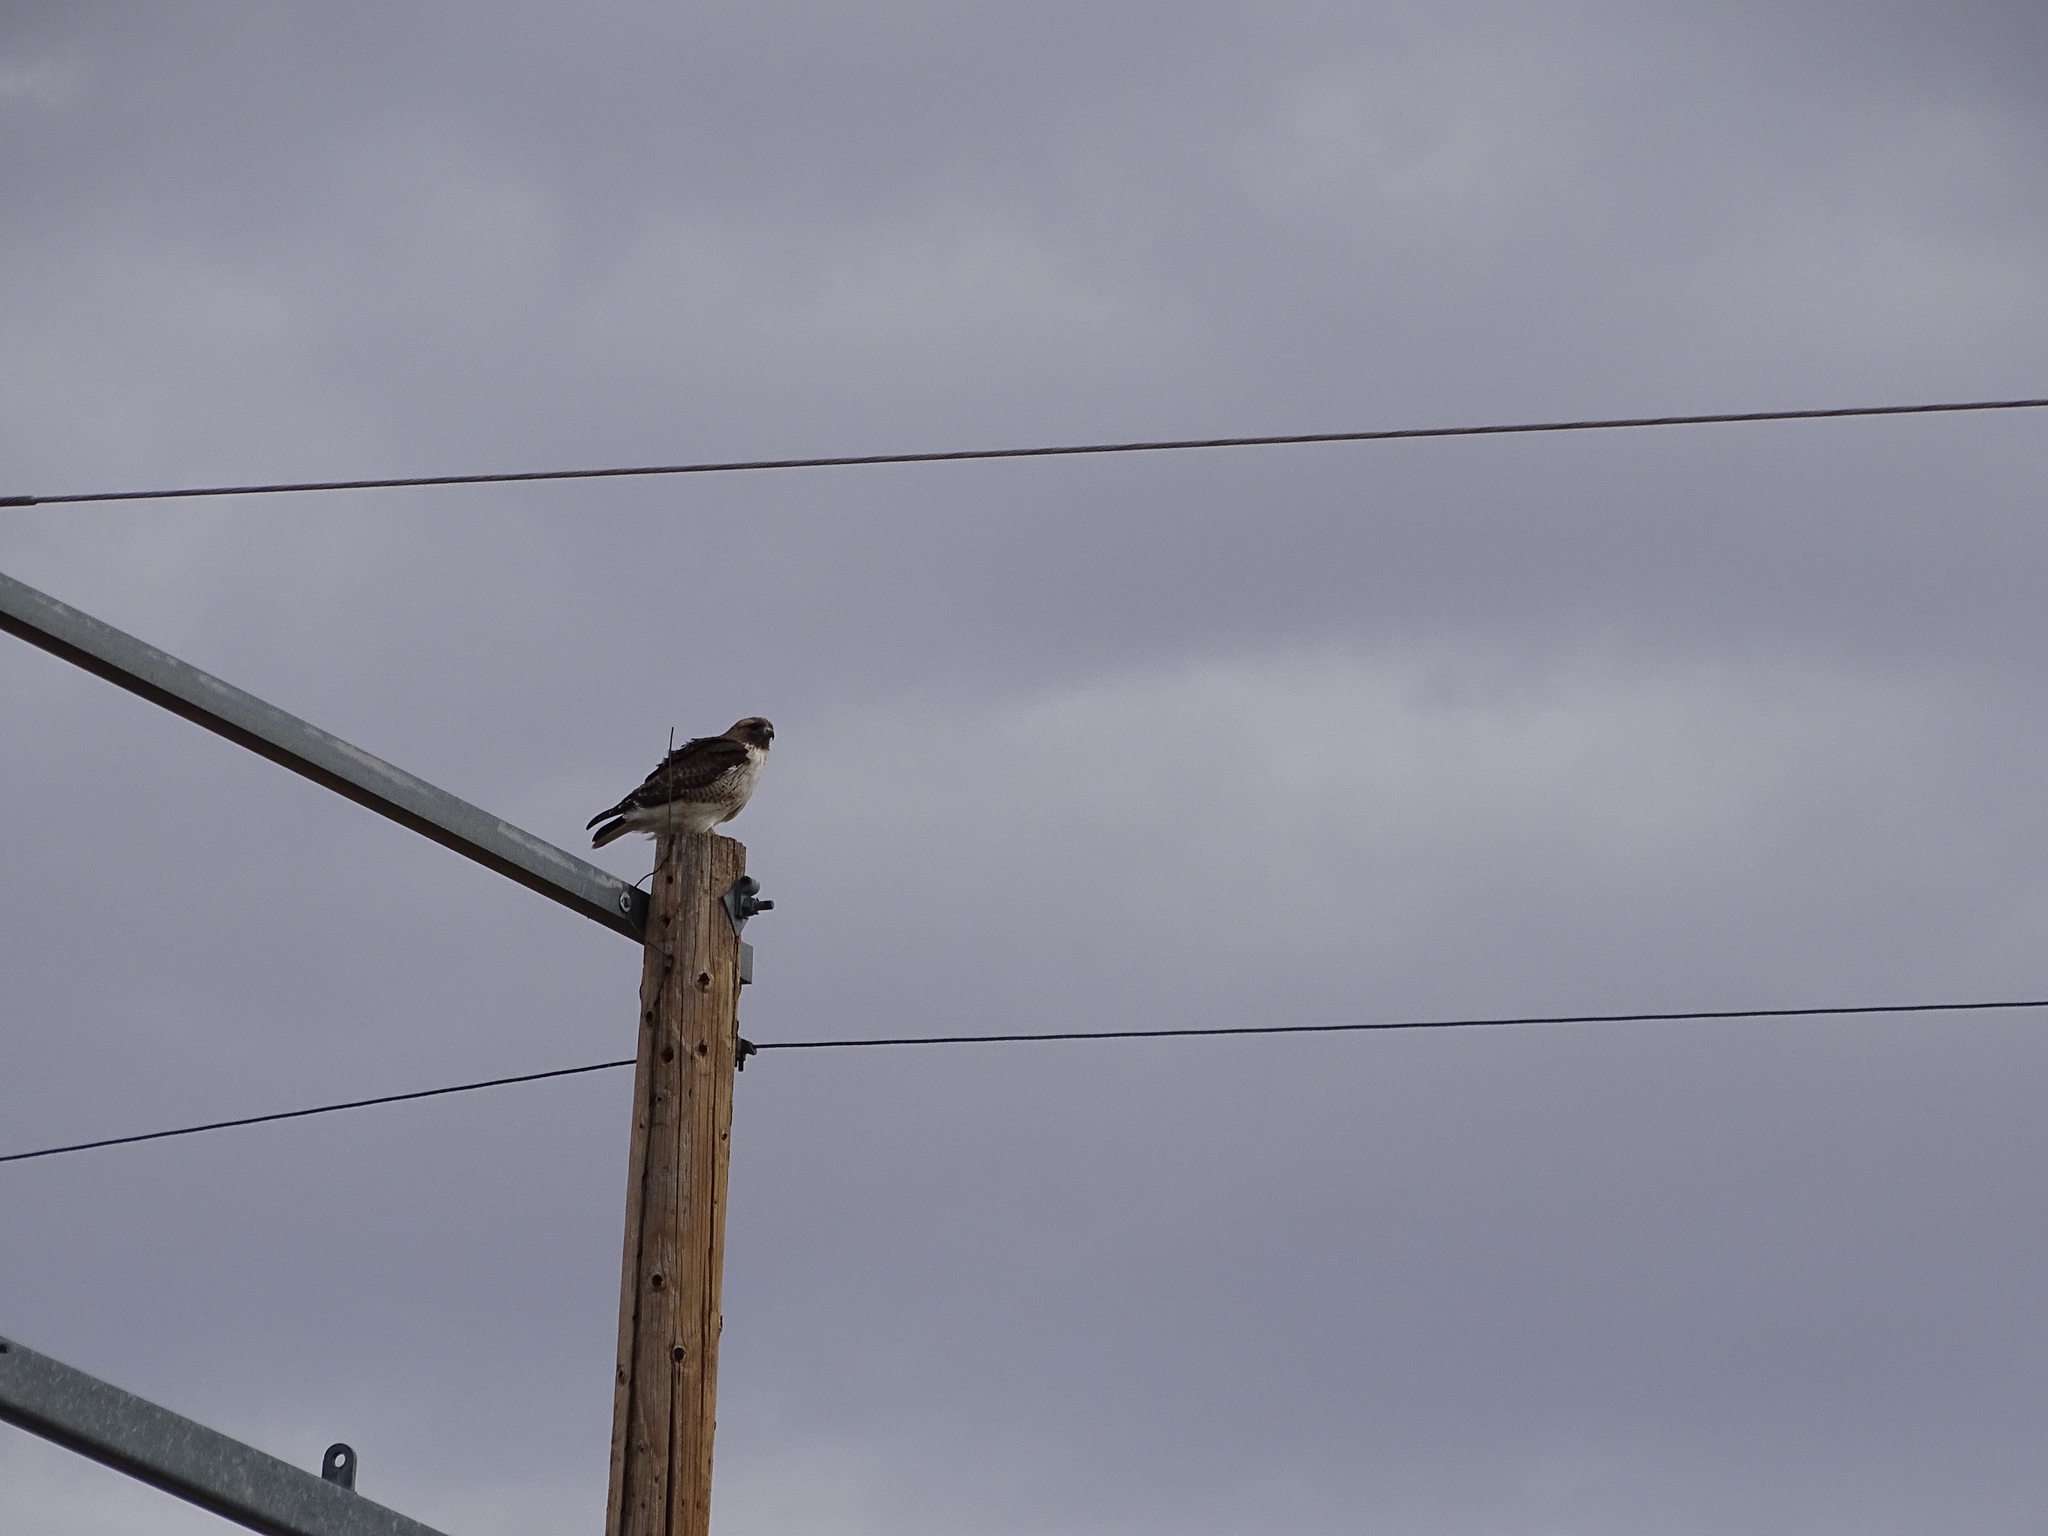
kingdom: Animalia
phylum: Chordata
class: Aves
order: Accipitriformes
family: Accipitridae
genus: Buteo
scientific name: Buteo jamaicensis
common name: Red-tailed hawk
